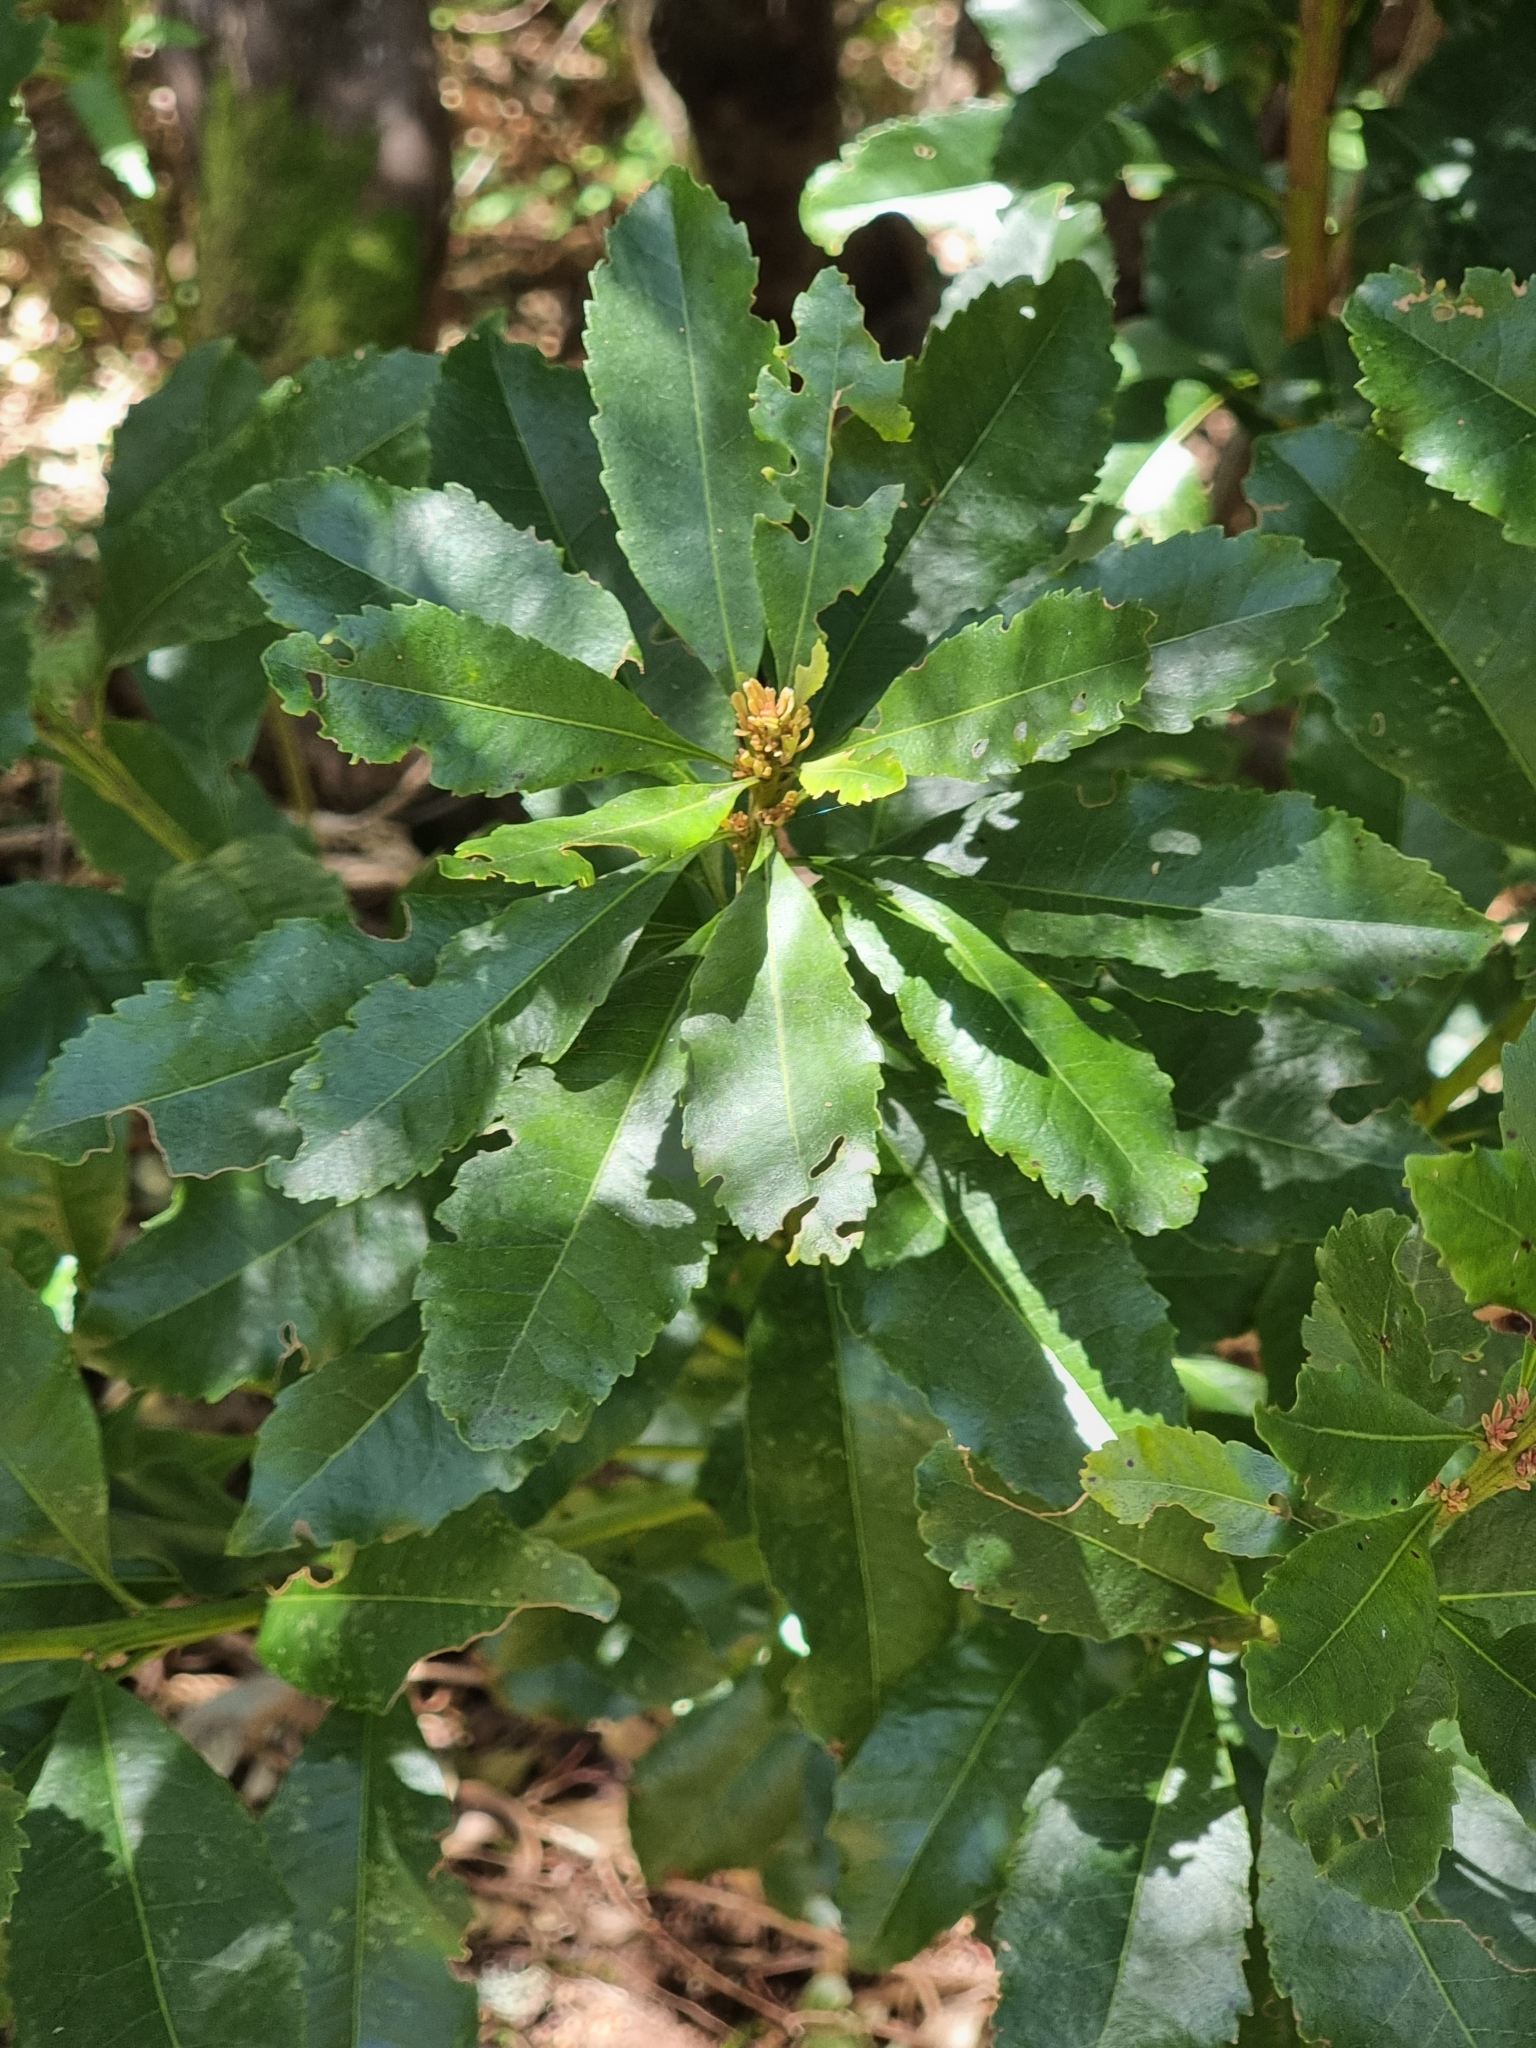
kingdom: Plantae
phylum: Tracheophyta
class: Magnoliopsida
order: Fagales
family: Myricaceae
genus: Morella
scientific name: Morella faya
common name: Firetree
